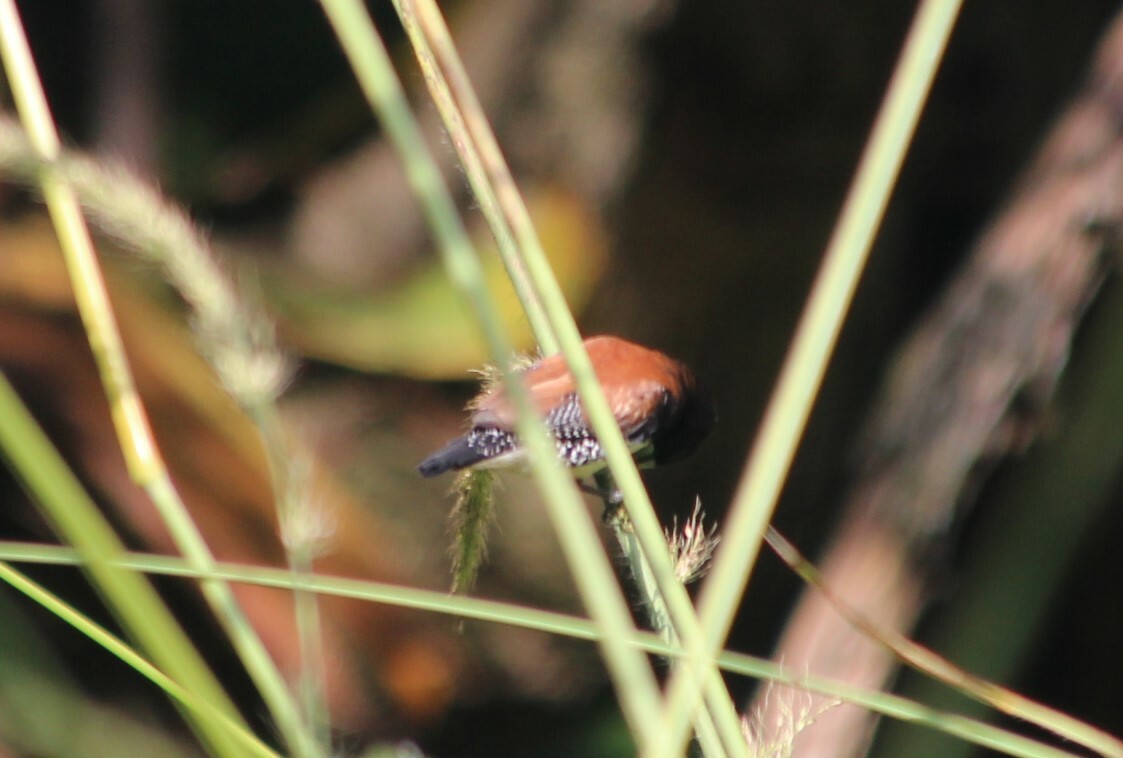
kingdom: Animalia
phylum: Chordata
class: Aves
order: Passeriformes
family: Estrildidae
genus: Lonchura
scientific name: Lonchura nigriceps
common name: Red-backed mannikin
